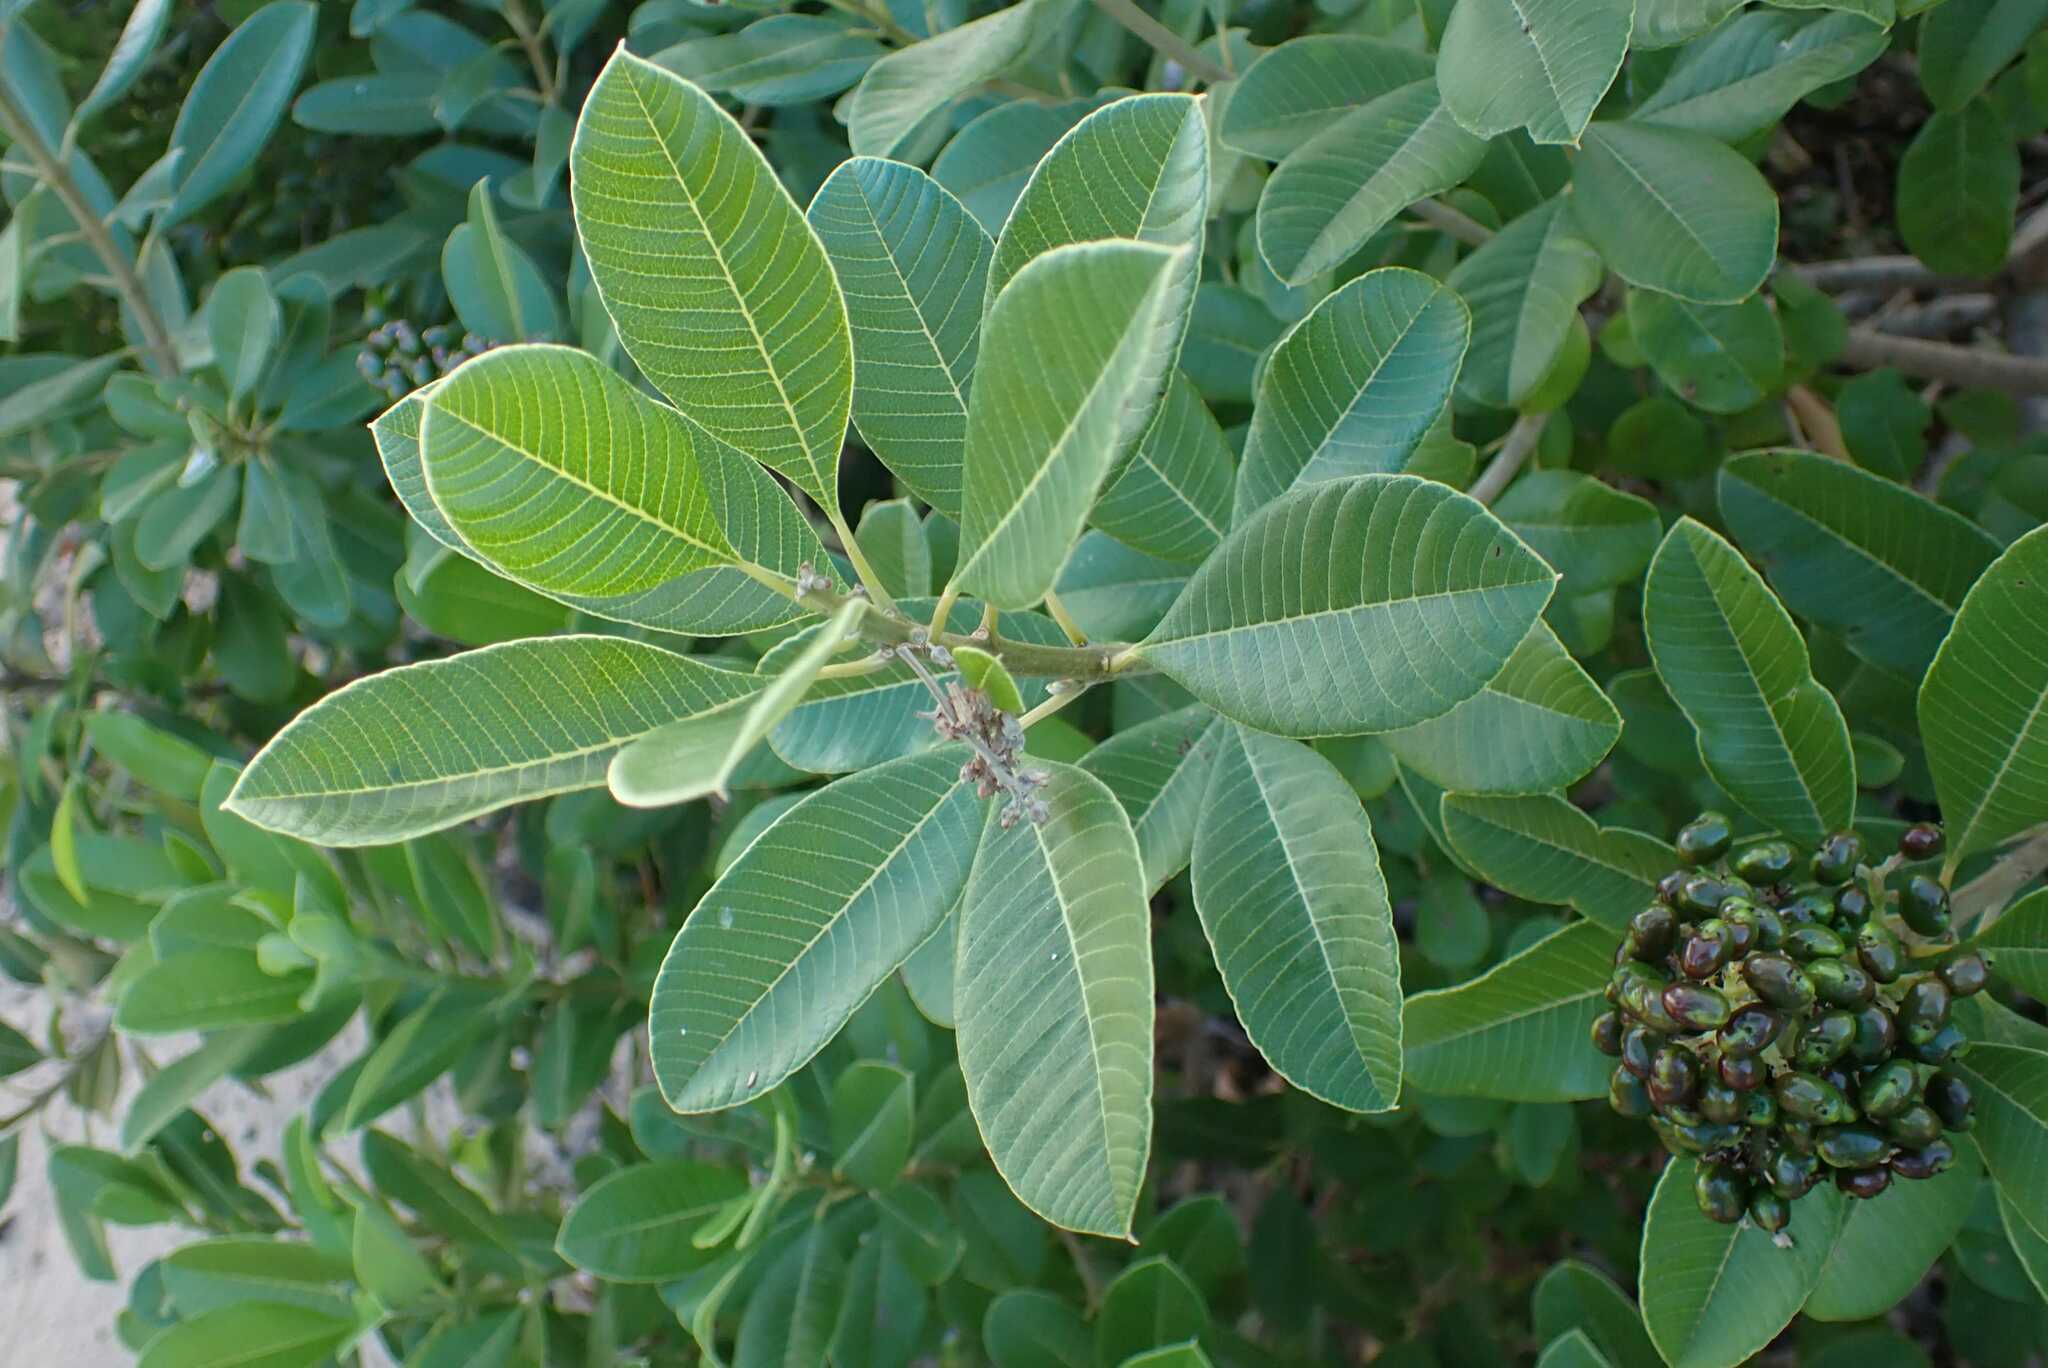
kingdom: Plantae
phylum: Tracheophyta
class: Magnoliopsida
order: Sapindales
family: Anacardiaceae
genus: Ozoroa
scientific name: Ozoroa obovata
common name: Broad-leaved resin tree
